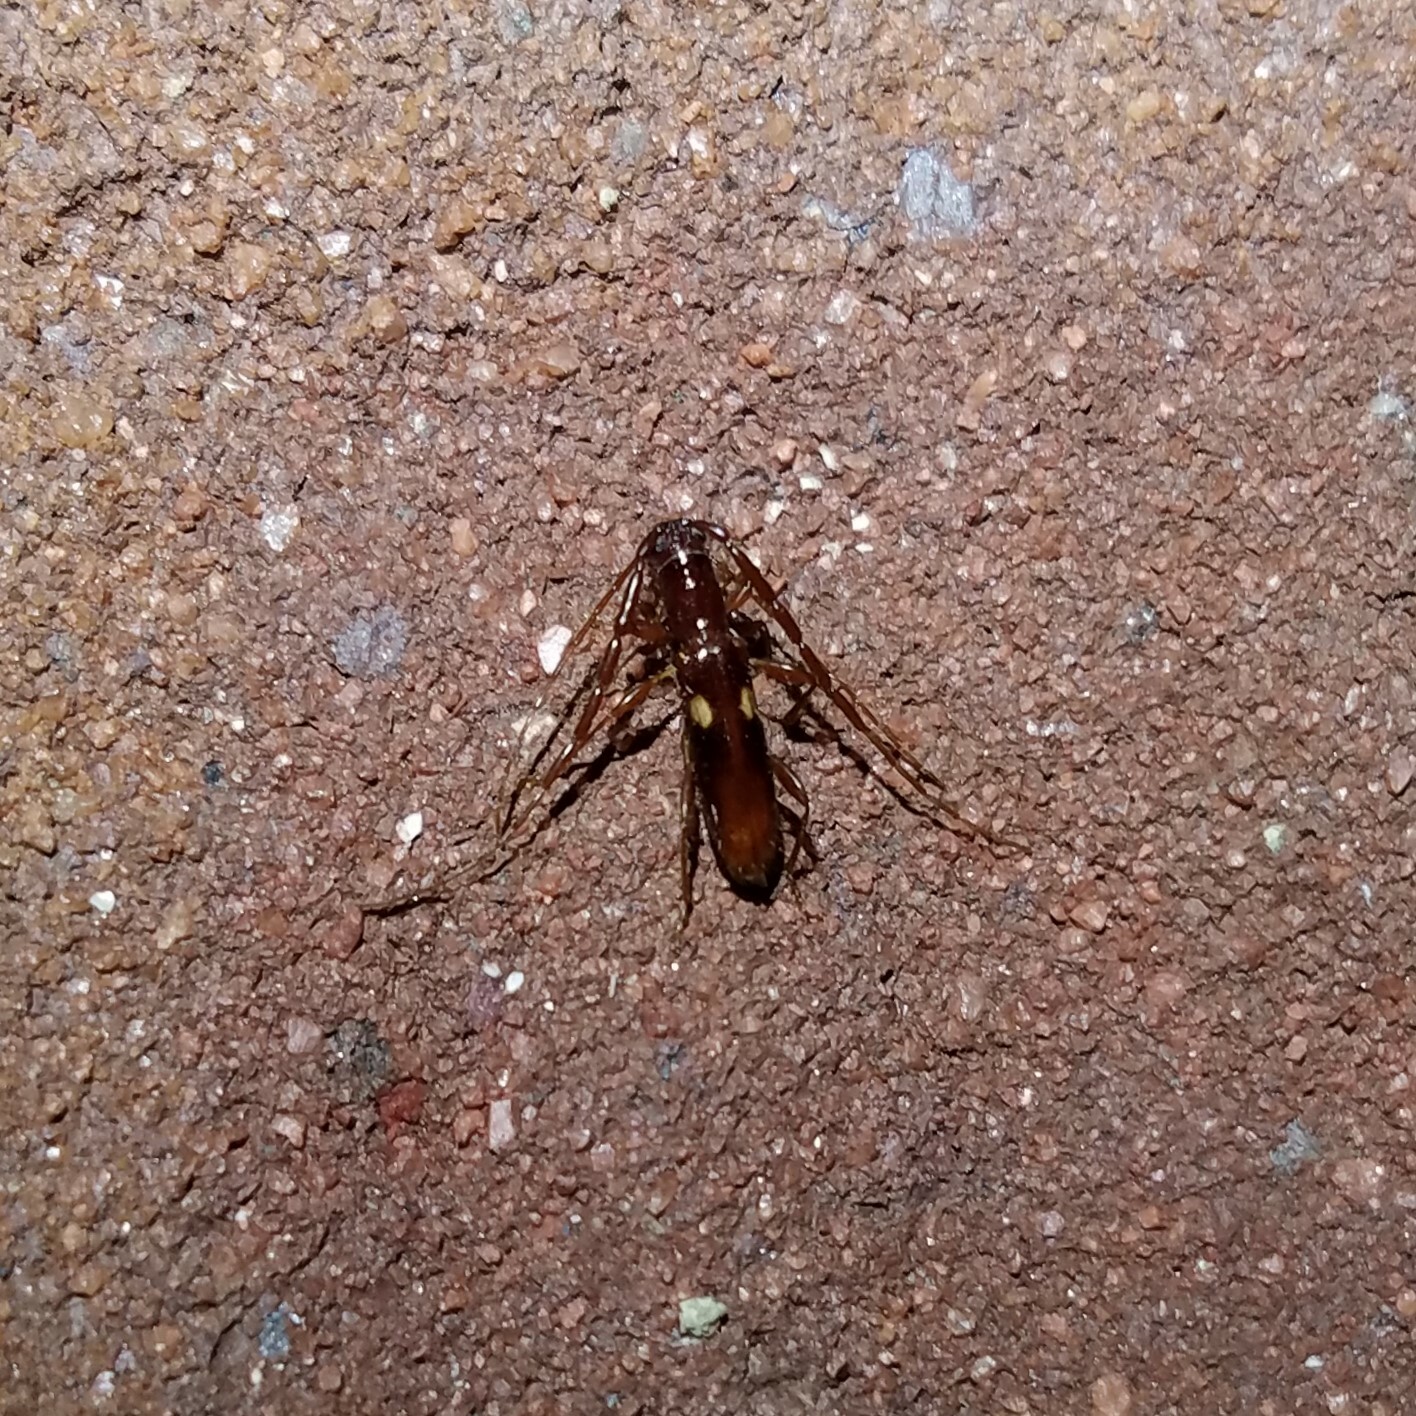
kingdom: Animalia
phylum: Arthropoda
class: Insecta
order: Coleoptera
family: Cerambycidae
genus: Heterachthes
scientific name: Heterachthes quadrimaculatus
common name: Four-spotted hickory borer
